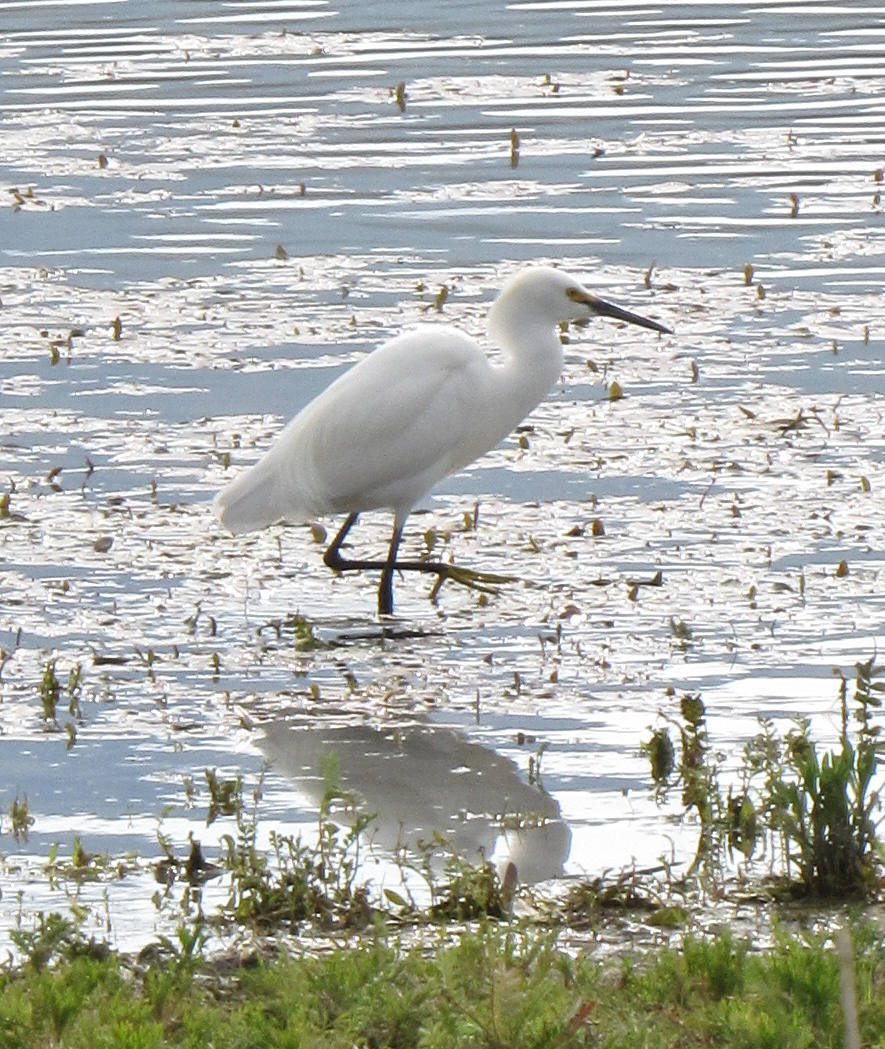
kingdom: Animalia
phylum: Chordata
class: Aves
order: Pelecaniformes
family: Ardeidae
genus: Egretta
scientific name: Egretta thula
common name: Snowy egret
